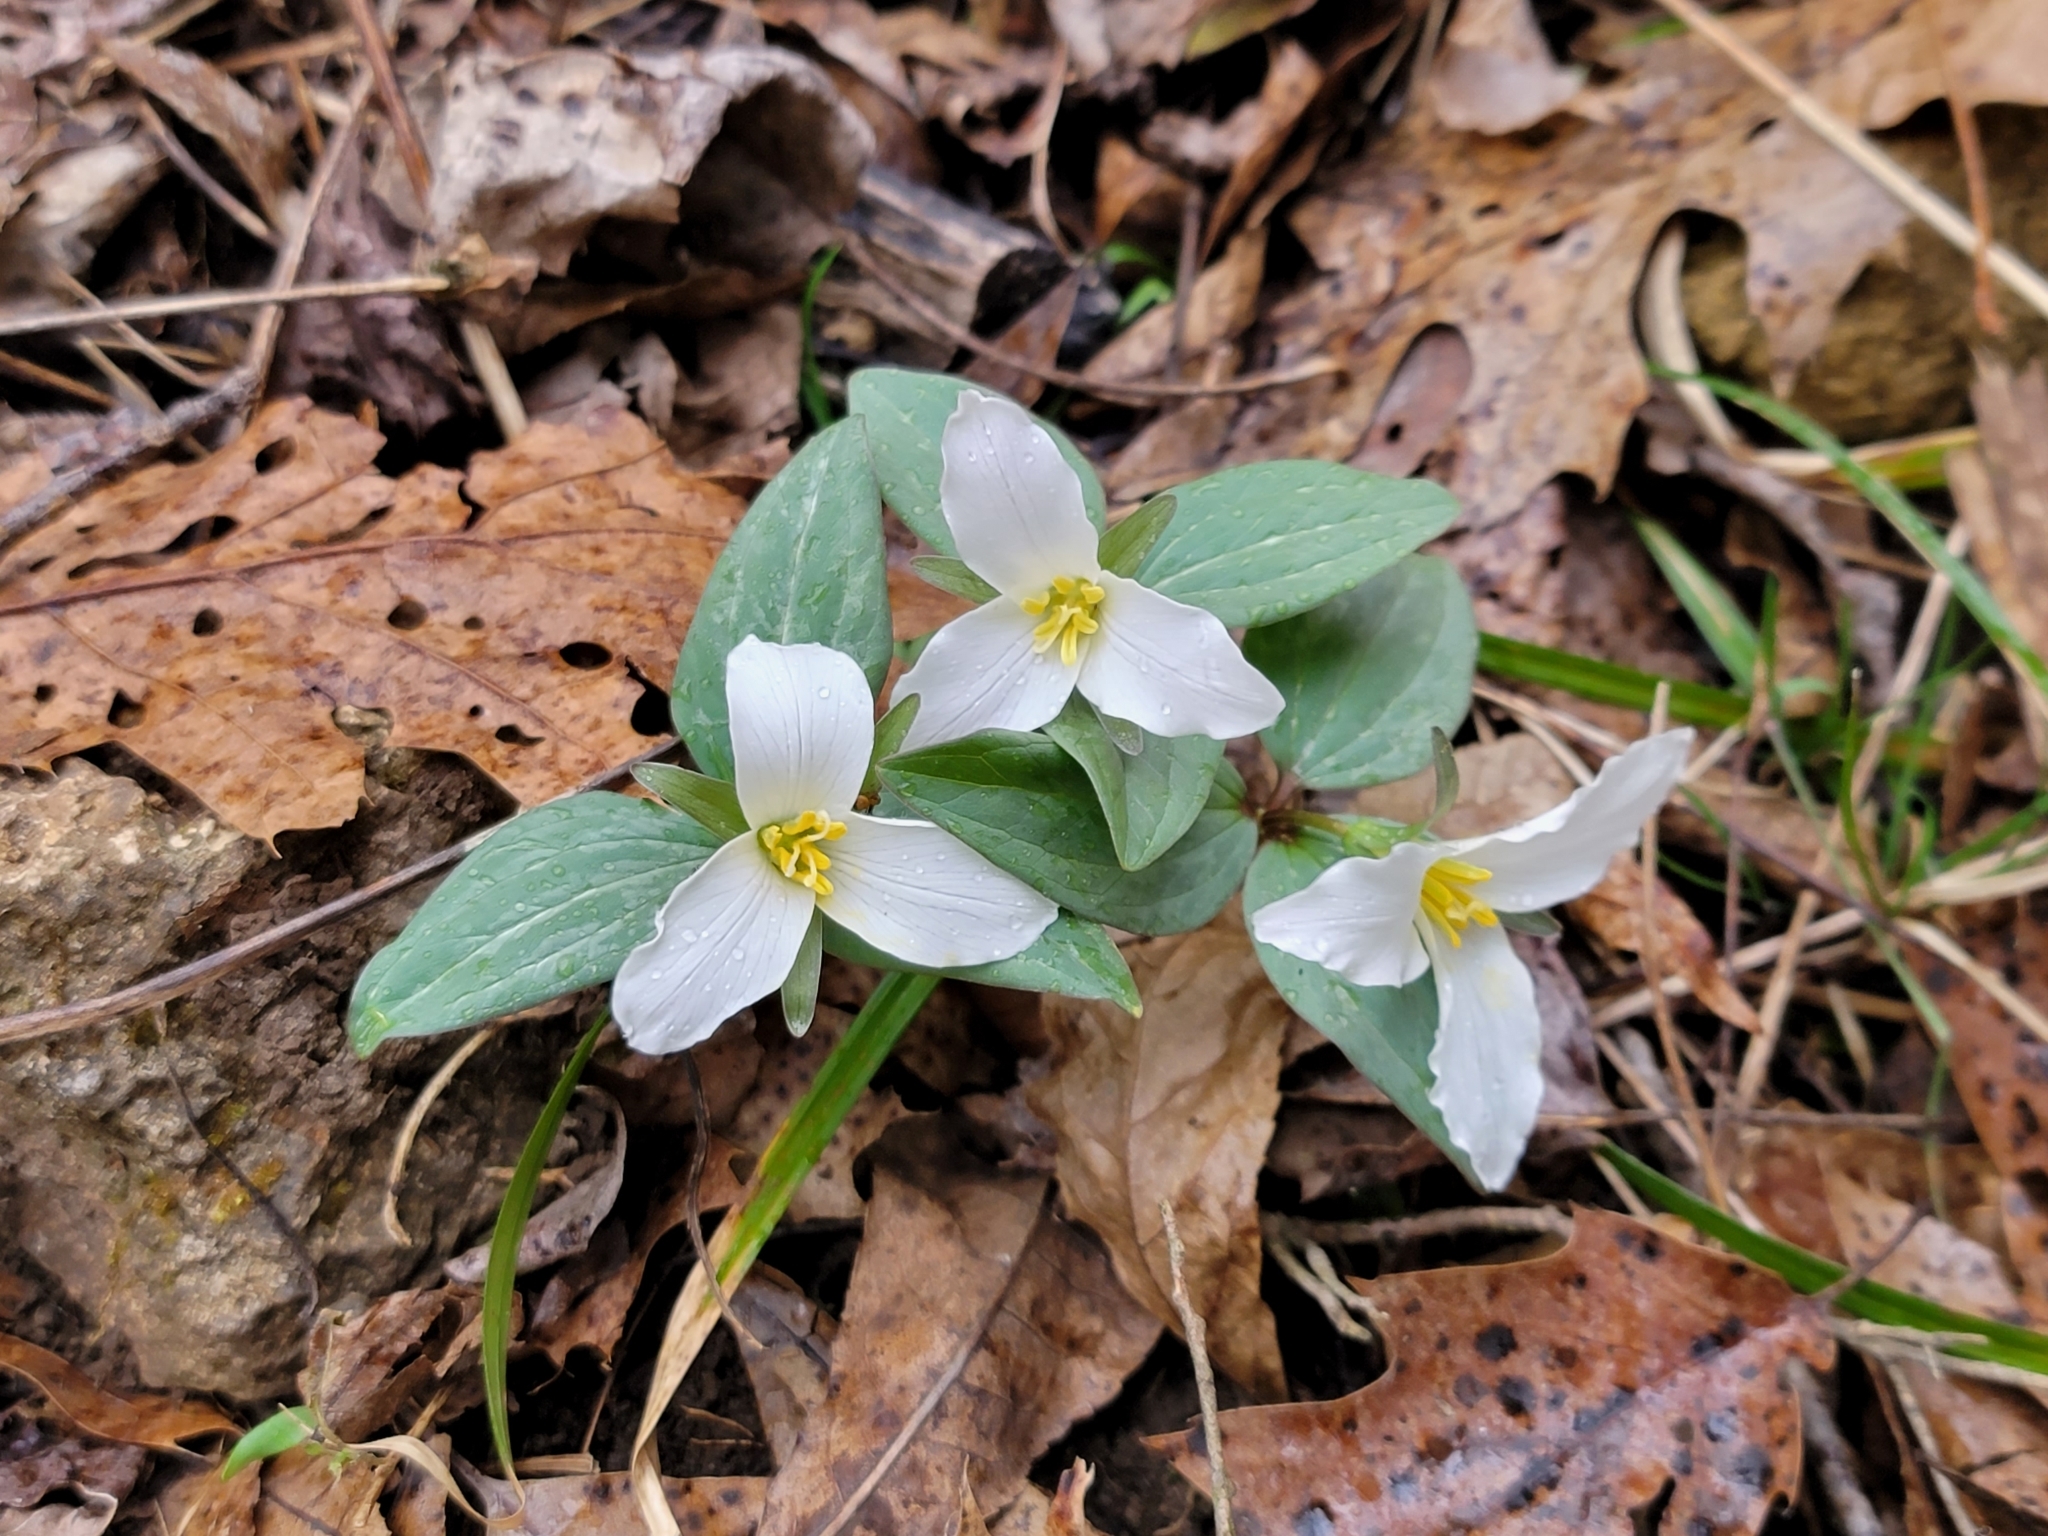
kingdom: Plantae
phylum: Tracheophyta
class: Liliopsida
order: Liliales
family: Melanthiaceae
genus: Trillium
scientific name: Trillium nivale
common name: Dwarf white trillium
